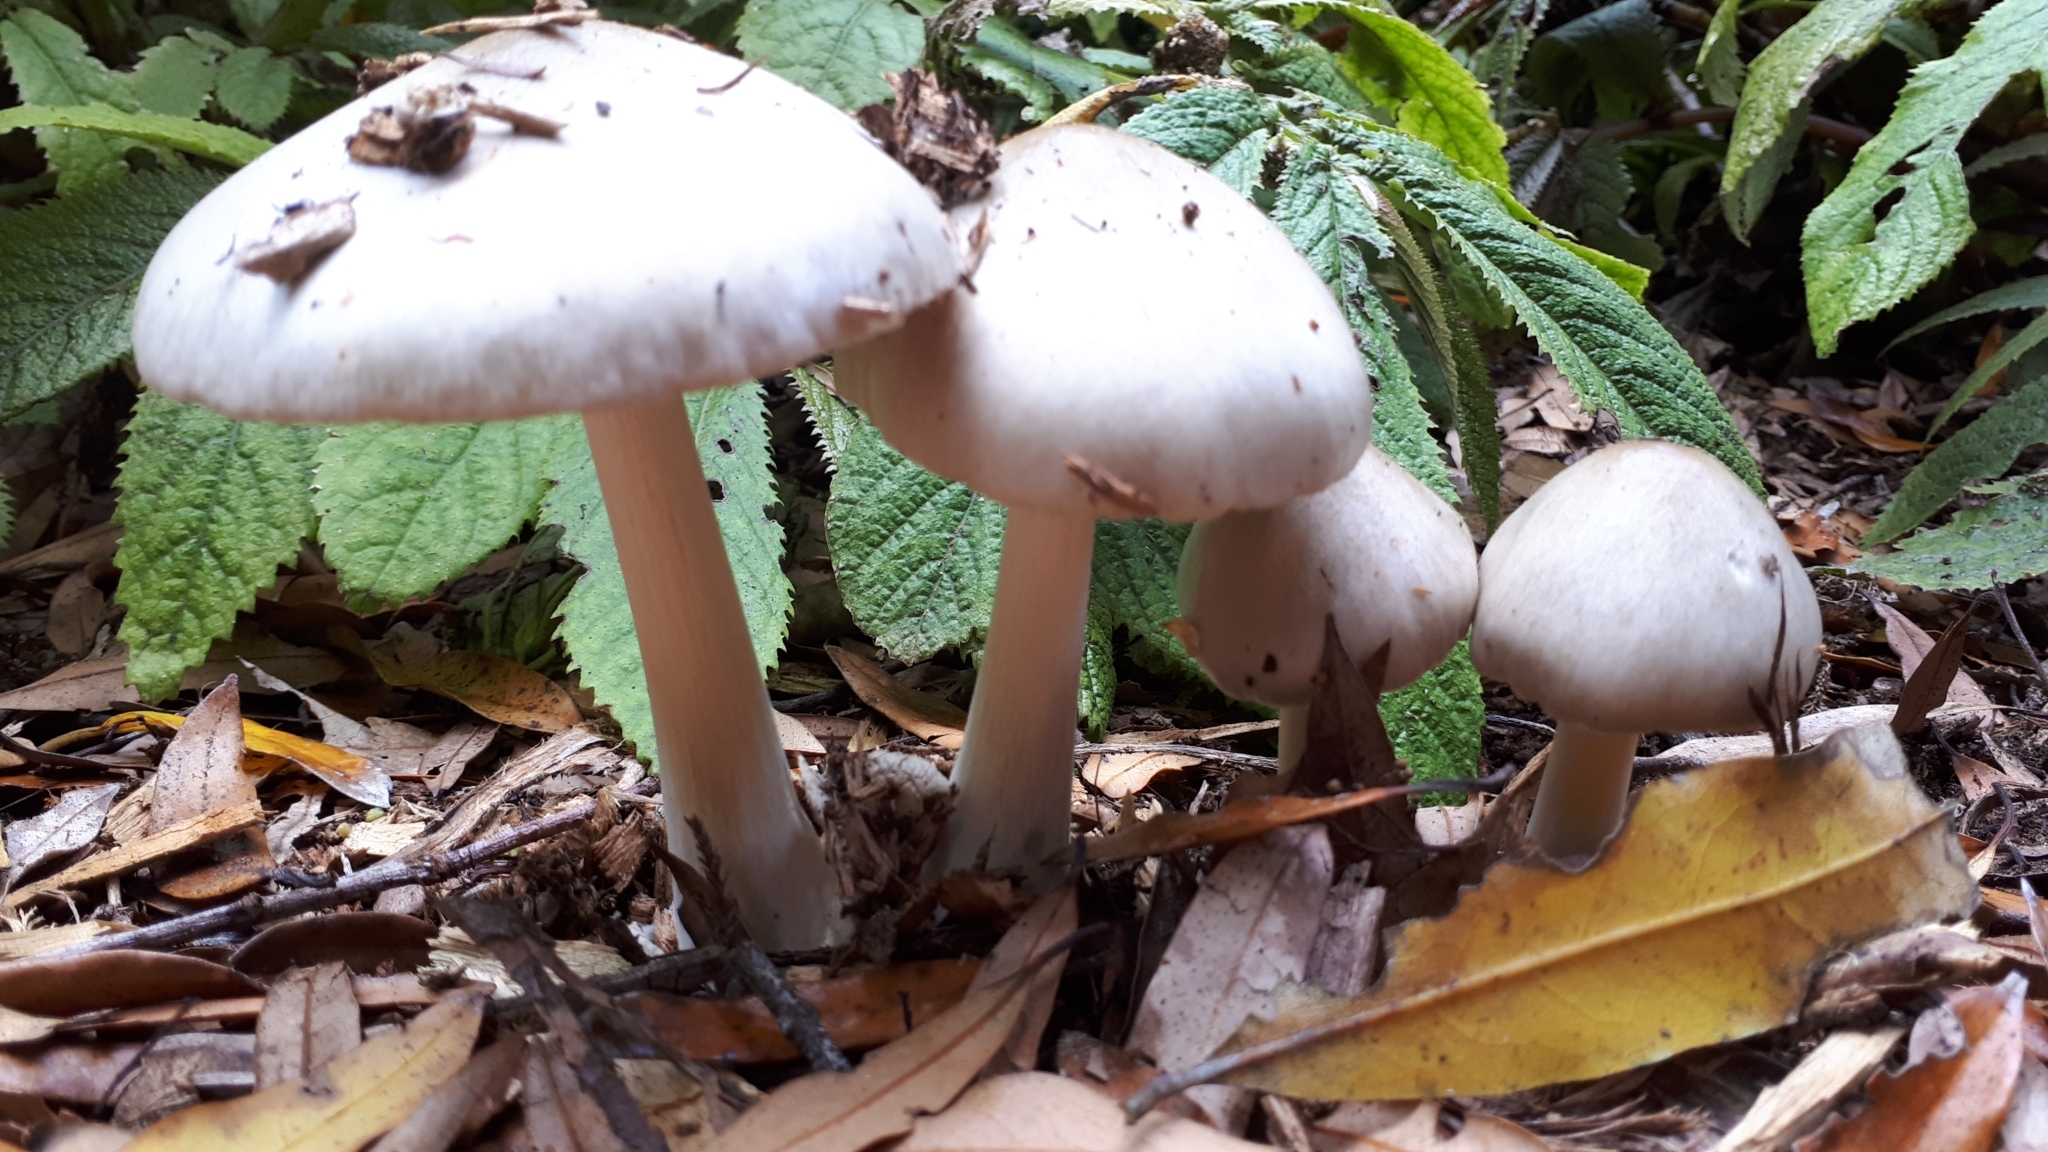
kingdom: Fungi
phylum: Basidiomycota
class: Agaricomycetes
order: Agaricales
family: Pluteaceae
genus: Volvopluteus
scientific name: Volvopluteus gloiocephalus
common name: Stubble rosegill
